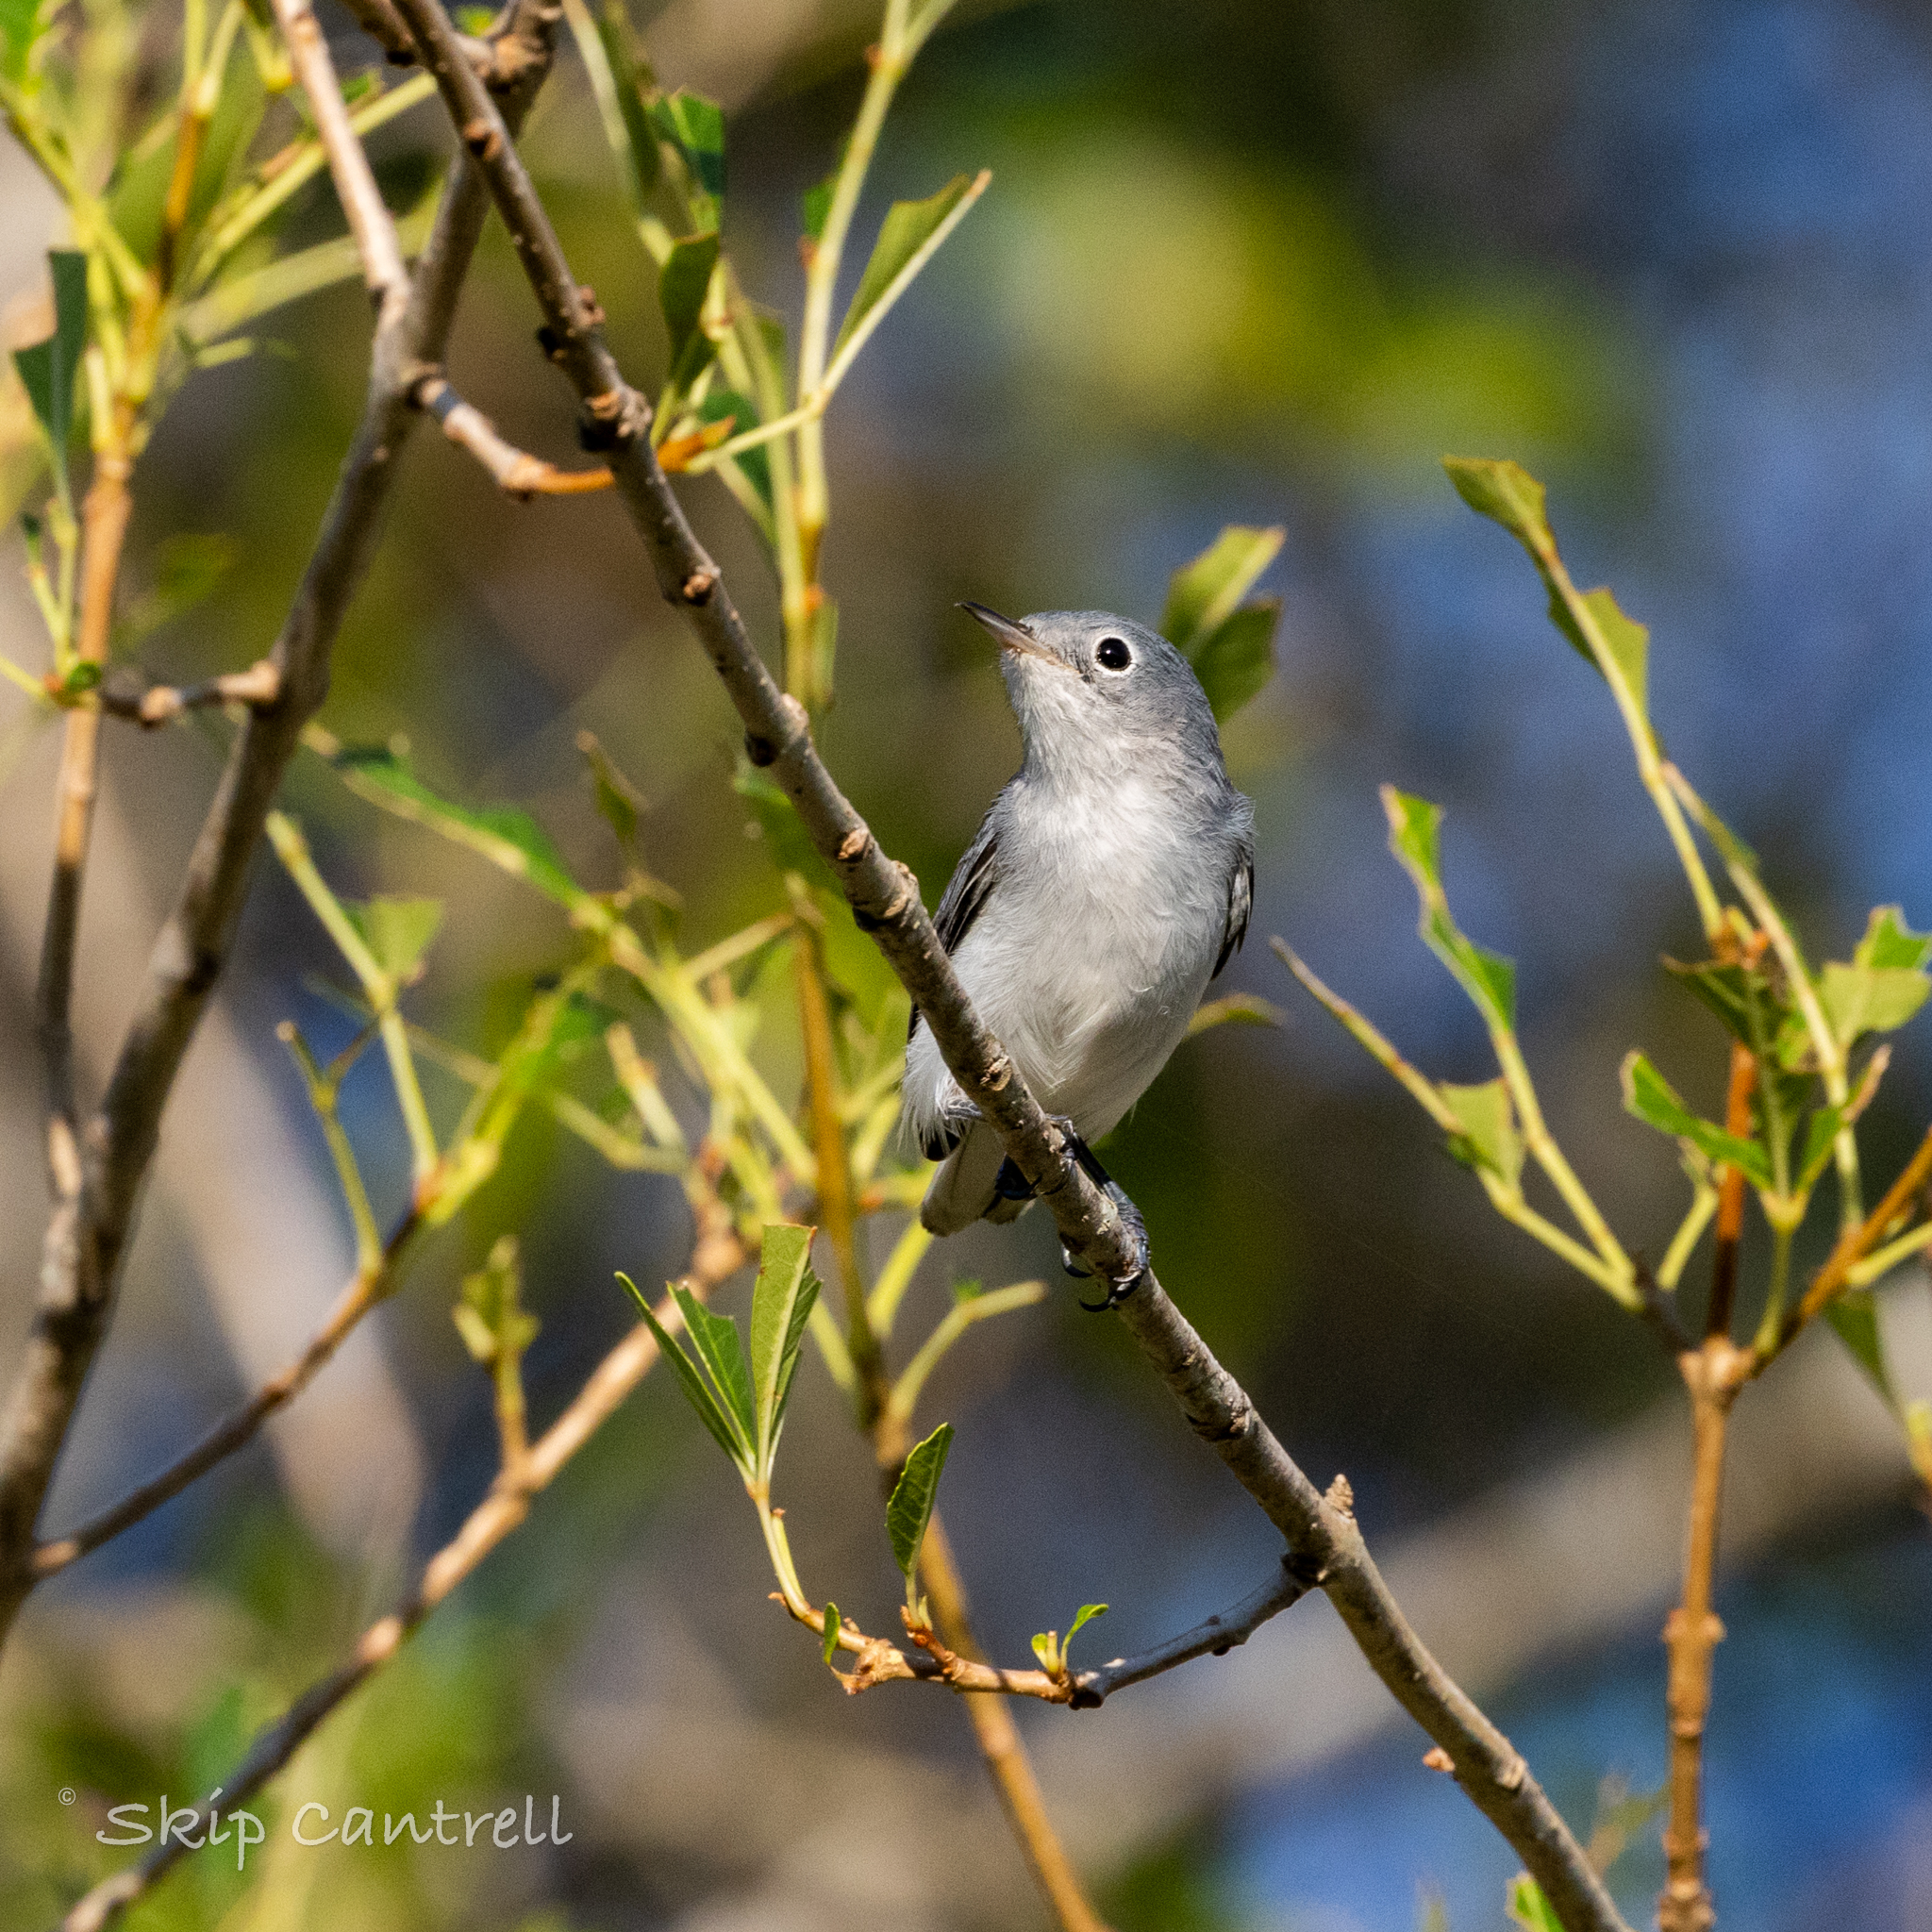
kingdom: Animalia
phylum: Chordata
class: Aves
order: Passeriformes
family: Polioptilidae
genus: Polioptila
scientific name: Polioptila caerulea
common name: Blue-gray gnatcatcher
